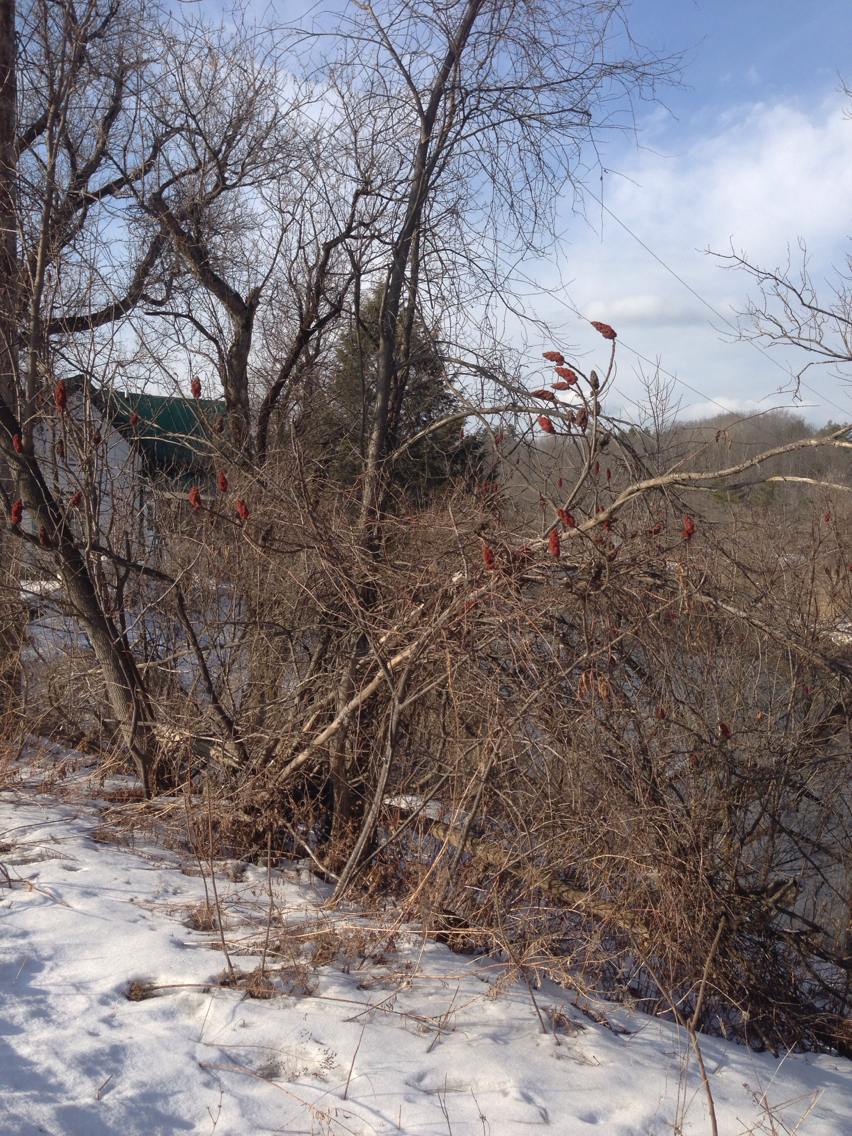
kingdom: Plantae
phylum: Tracheophyta
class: Magnoliopsida
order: Sapindales
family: Anacardiaceae
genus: Rhus
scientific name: Rhus typhina
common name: Staghorn sumac
